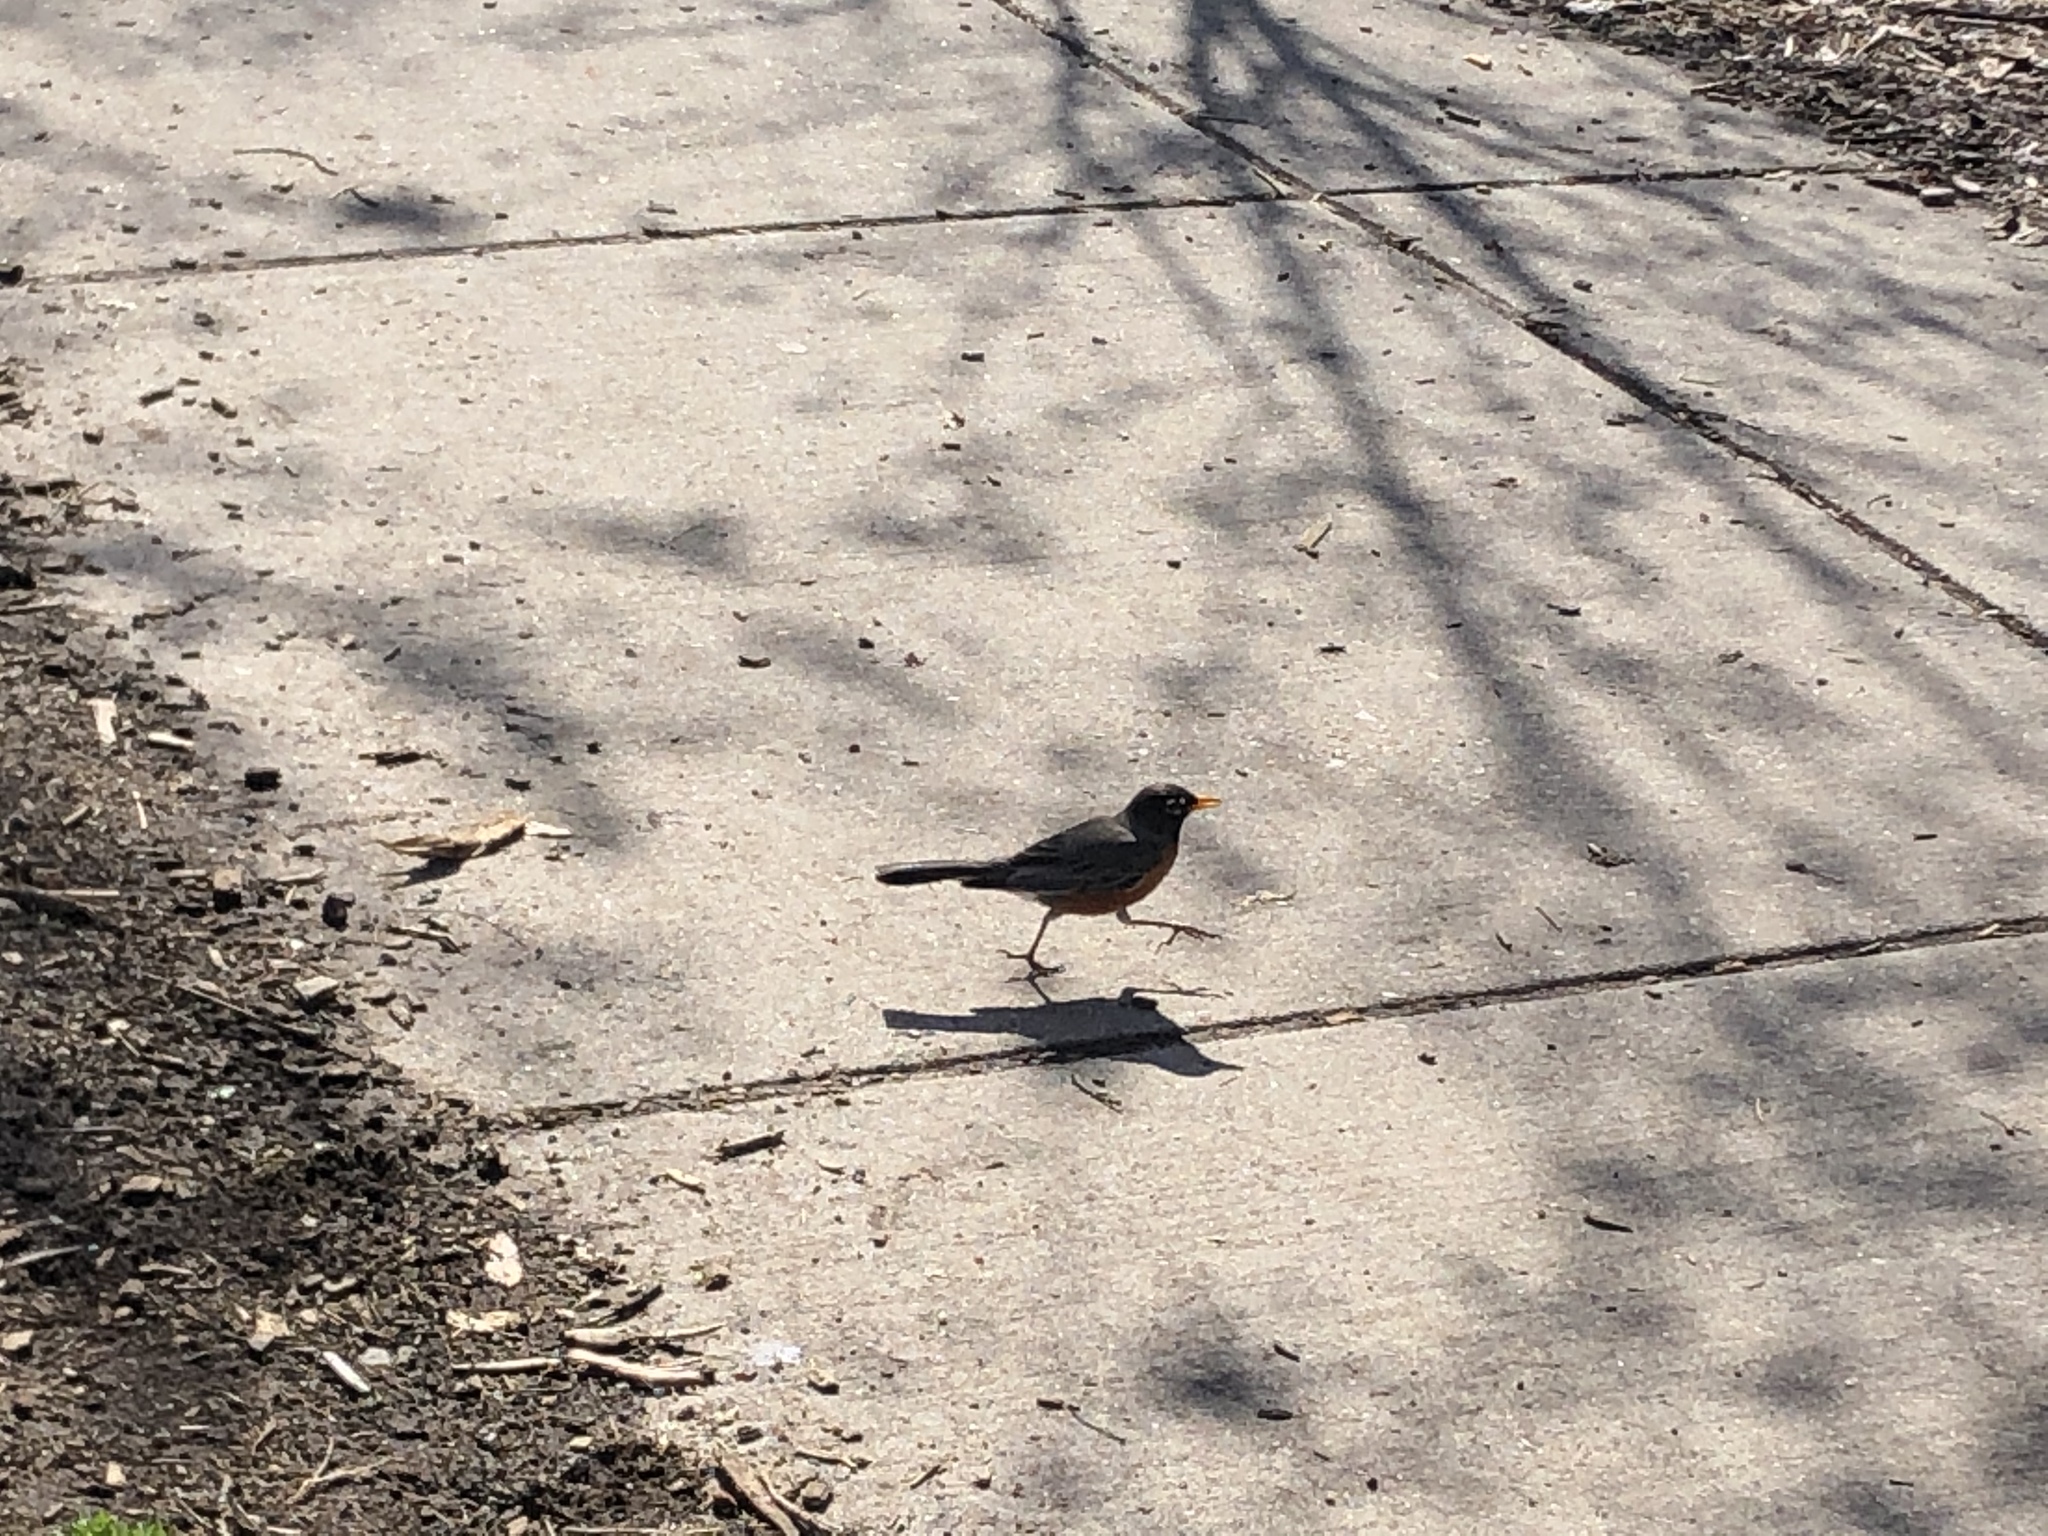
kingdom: Animalia
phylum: Chordata
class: Aves
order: Passeriformes
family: Turdidae
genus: Turdus
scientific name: Turdus migratorius
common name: American robin
